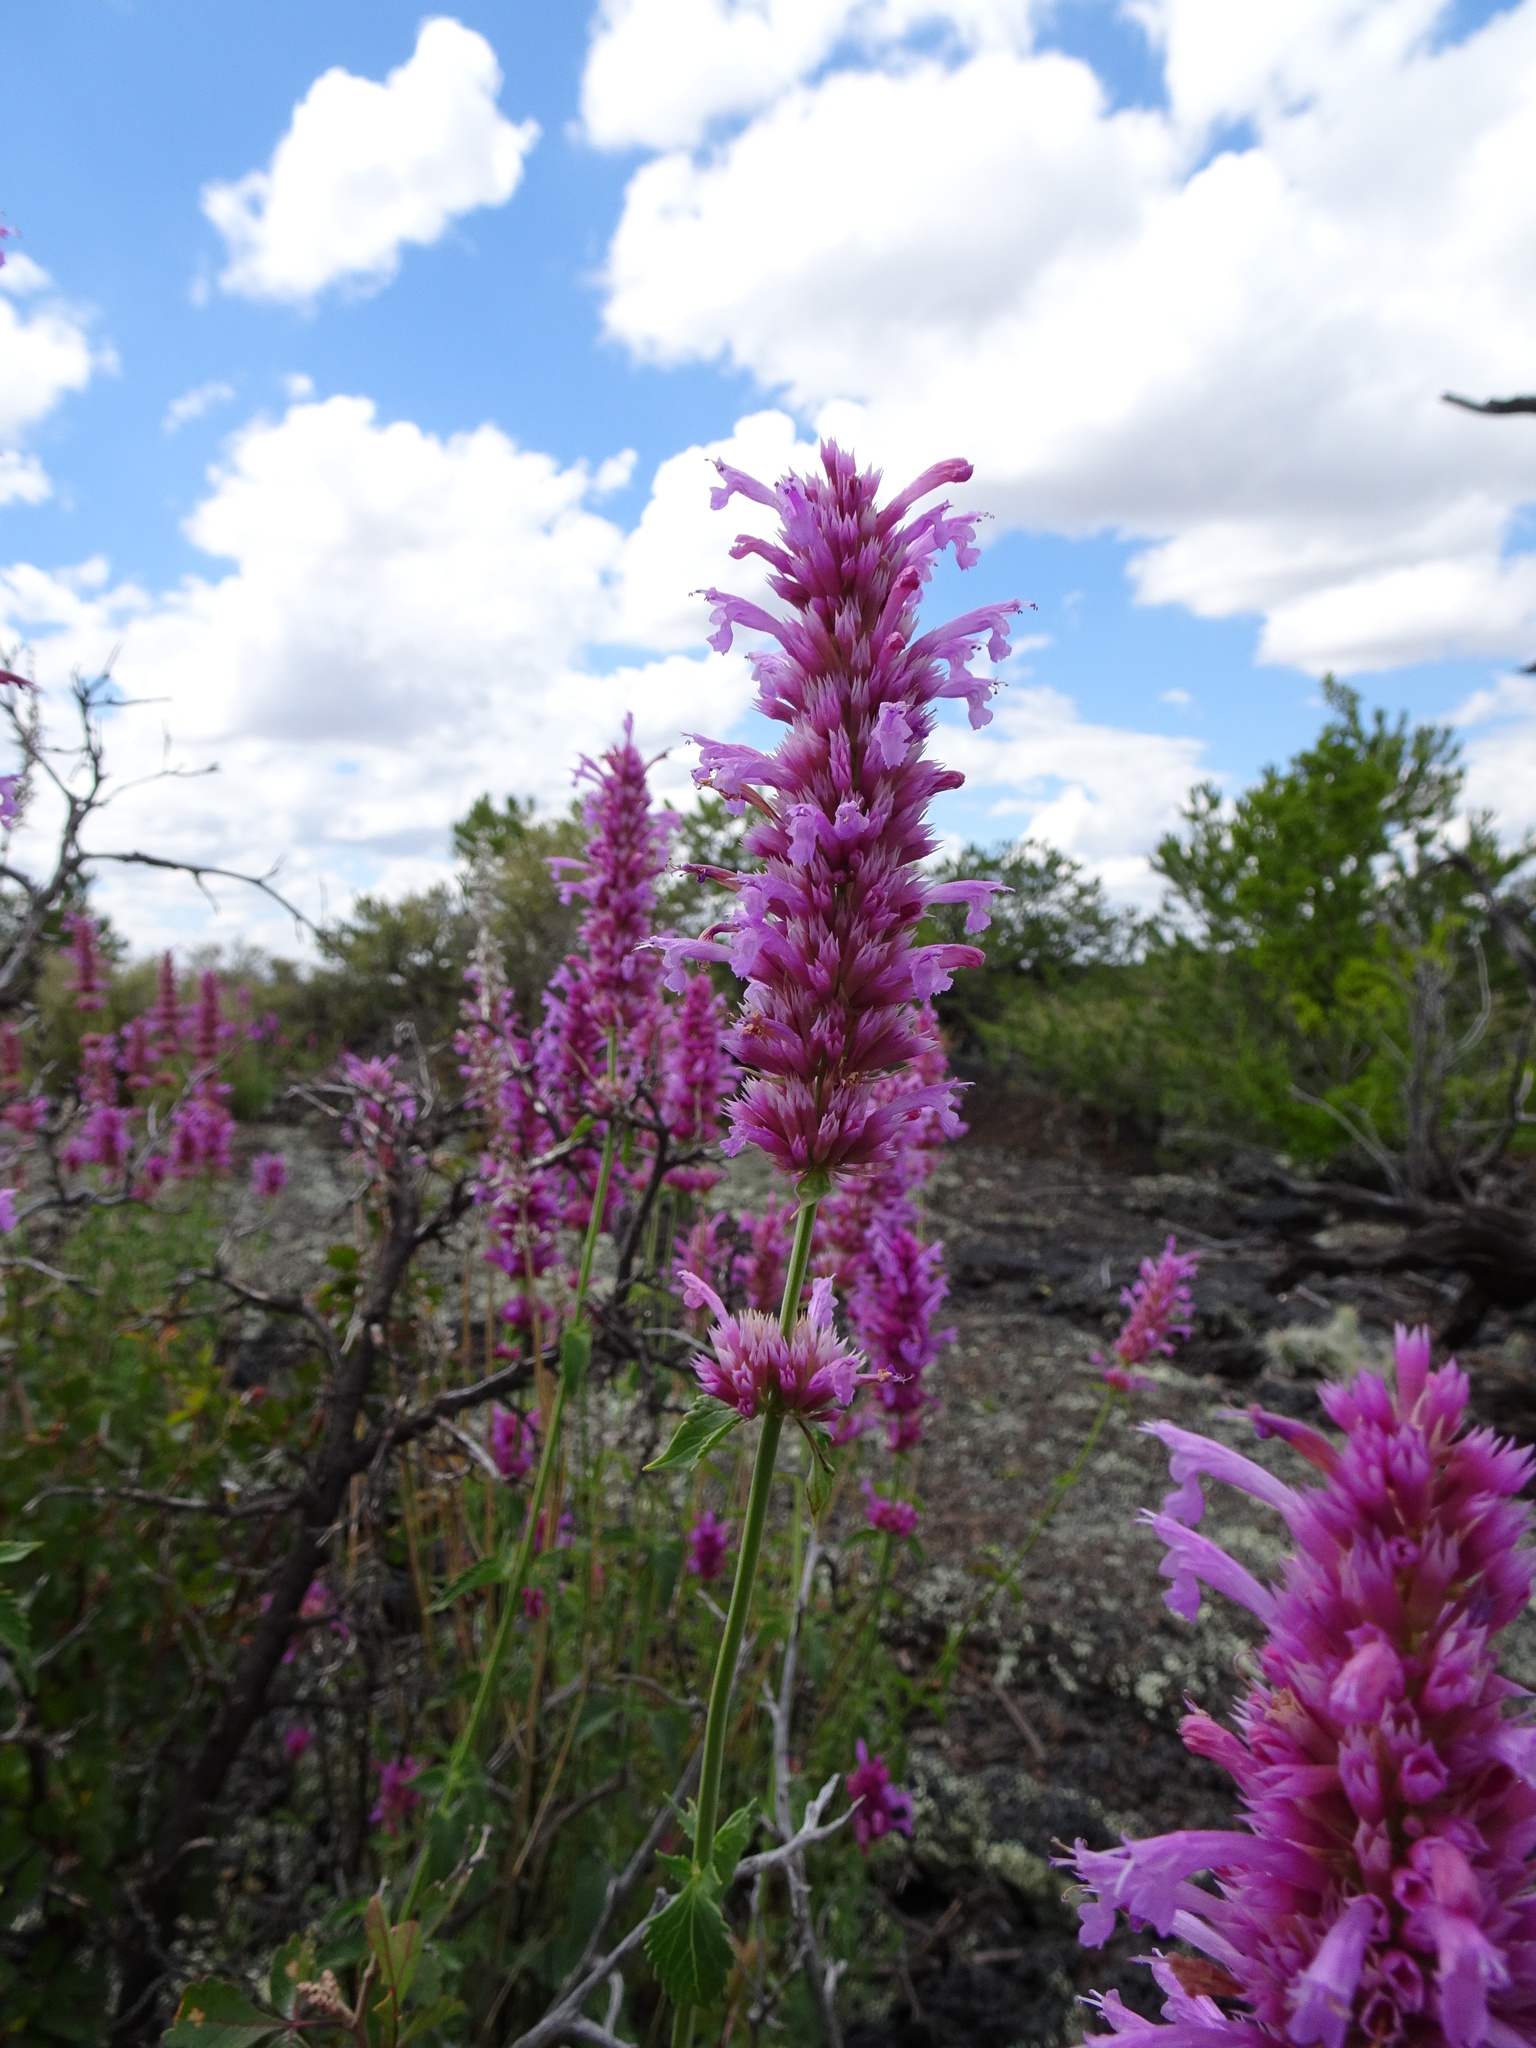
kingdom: Plantae
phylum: Tracheophyta
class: Magnoliopsida
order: Lamiales
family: Lamiaceae
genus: Agastache
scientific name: Agastache pallidiflora
